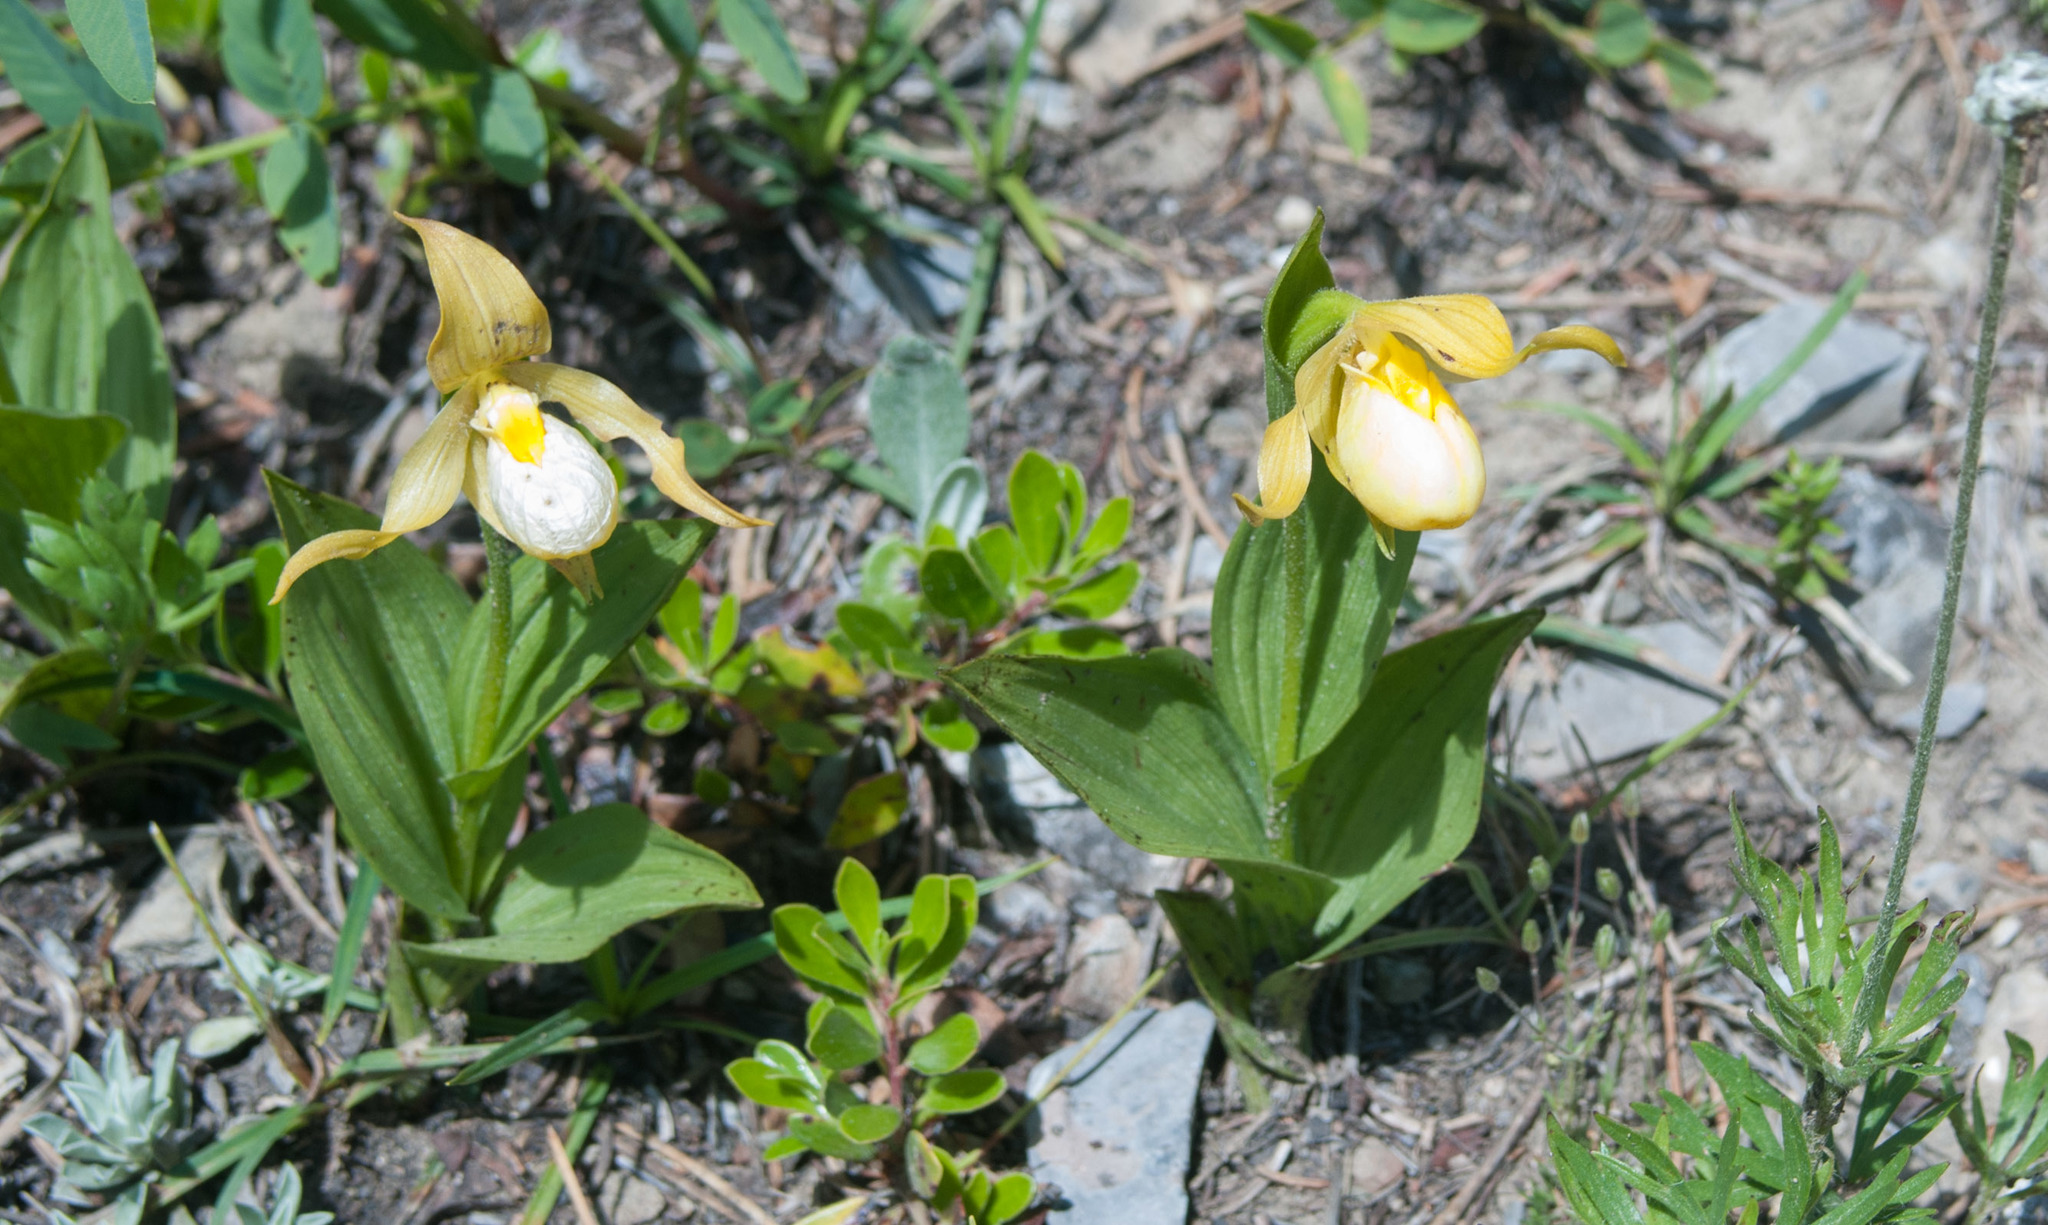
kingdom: Plantae
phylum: Tracheophyta
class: Liliopsida
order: Asparagales
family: Orchidaceae
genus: Cypripedium
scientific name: Cypripedium parviflorum
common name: American yellow lady's-slipper
